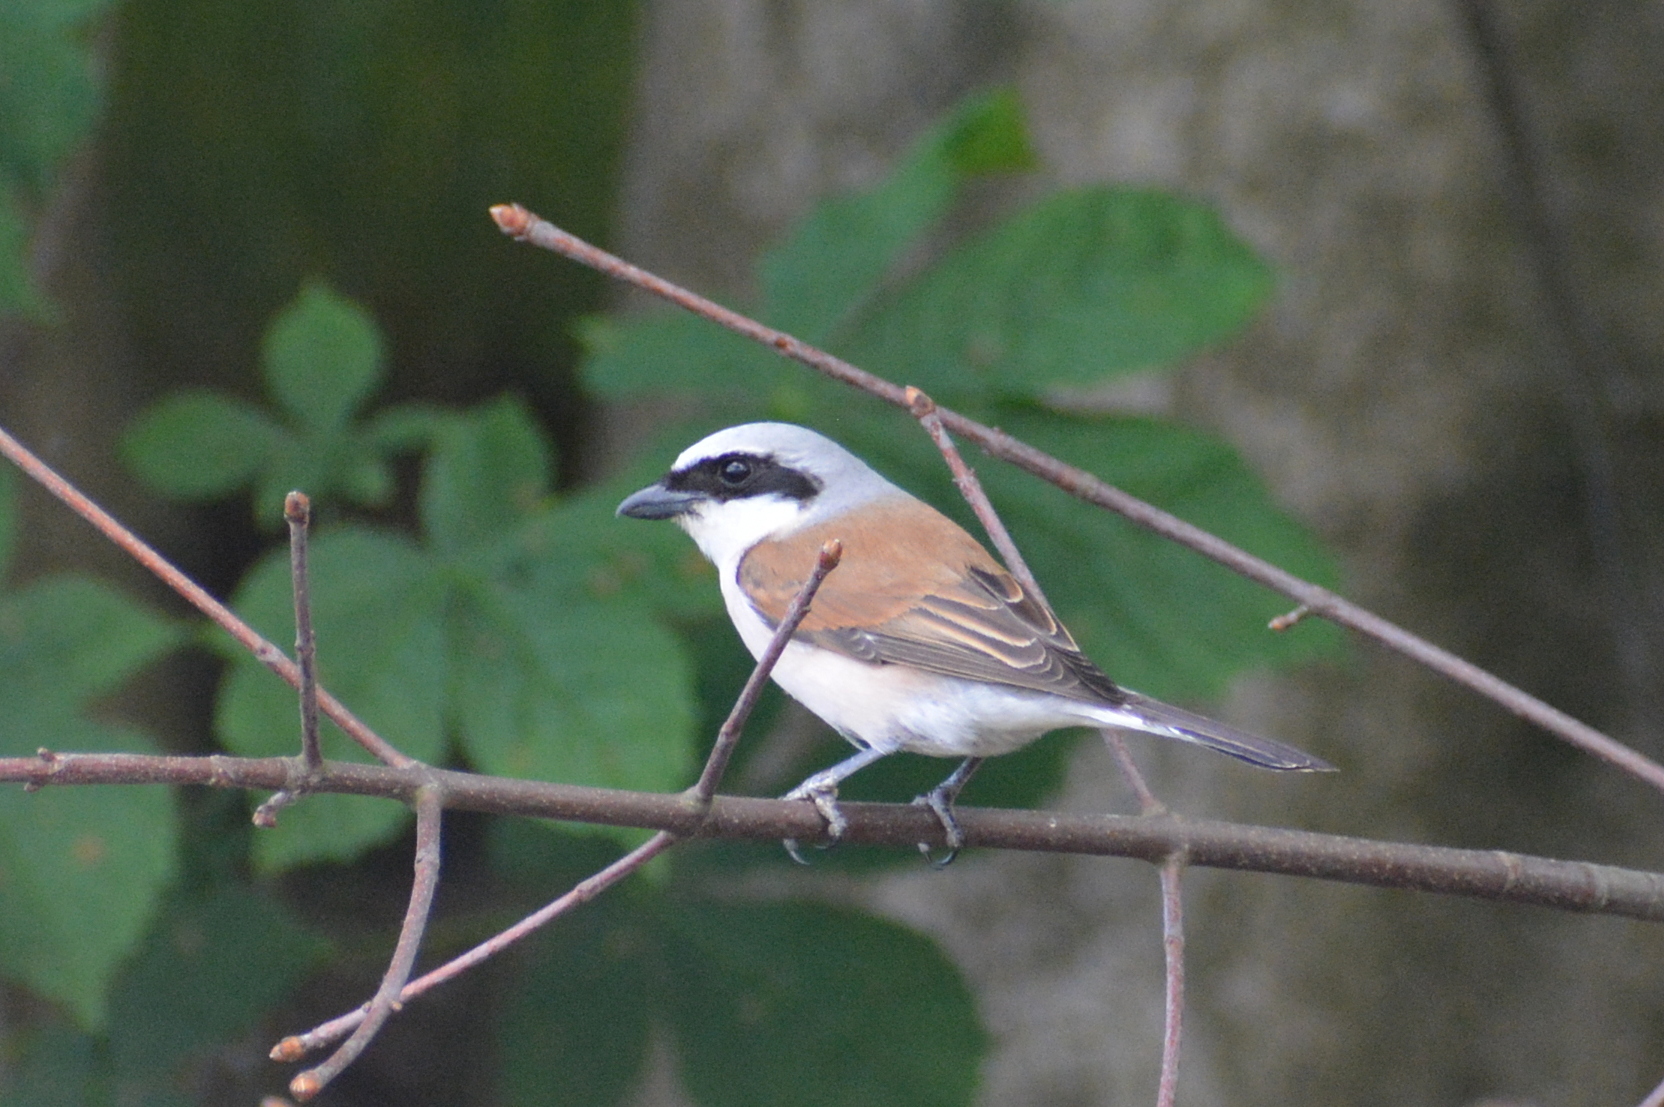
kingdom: Animalia
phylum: Chordata
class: Aves
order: Passeriformes
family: Laniidae
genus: Lanius
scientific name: Lanius collurio
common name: Red-backed shrike
